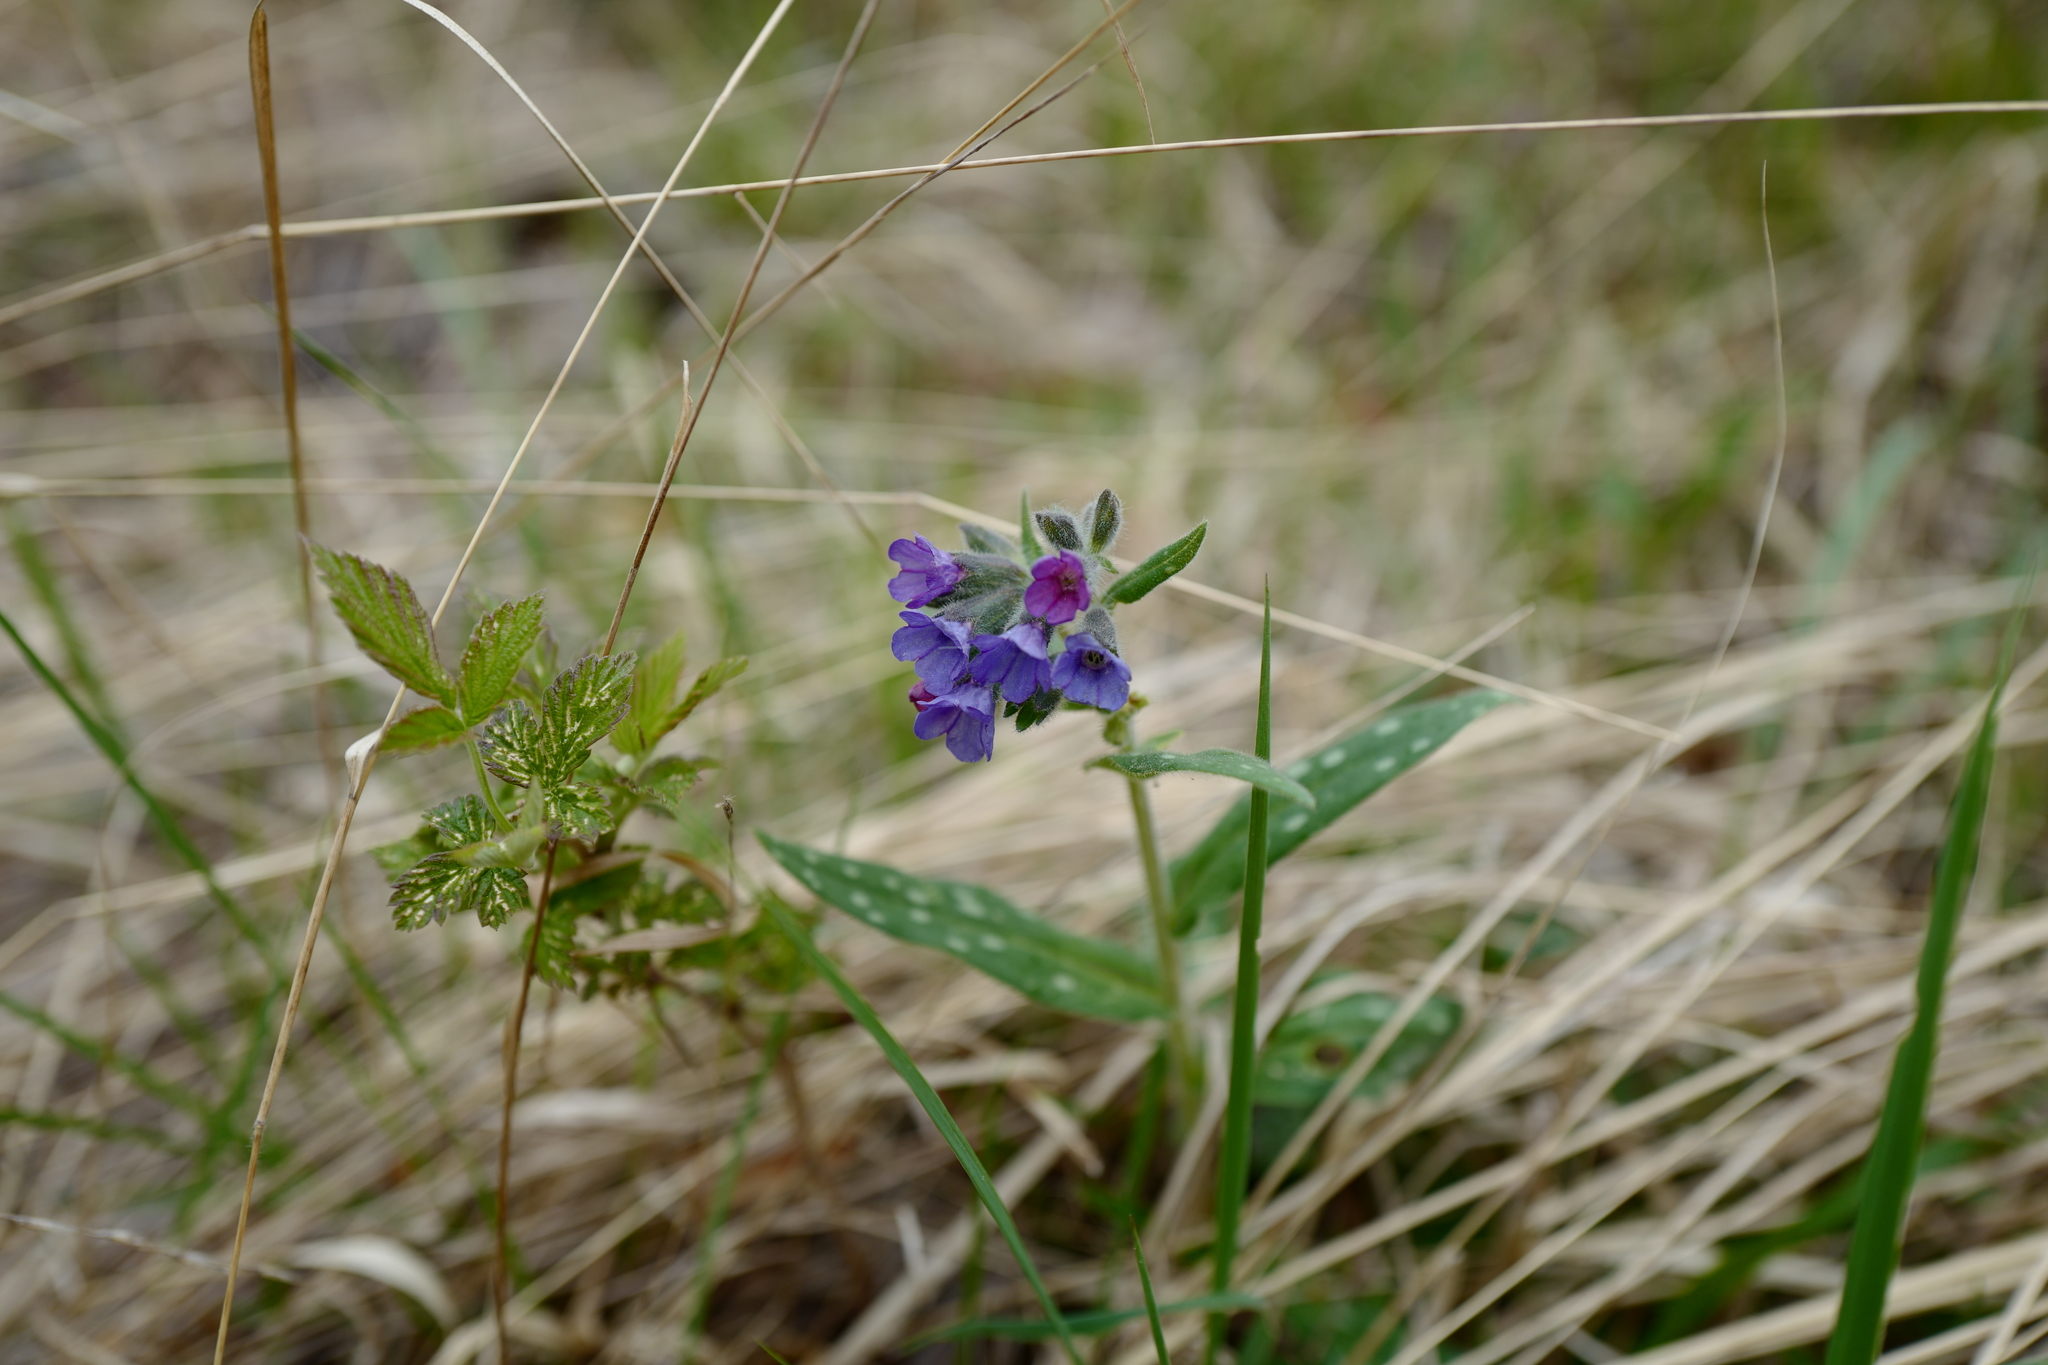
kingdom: Plantae
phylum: Tracheophyta
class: Magnoliopsida
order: Boraginales
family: Boraginaceae
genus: Pulmonaria
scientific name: Pulmonaria officinalis
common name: Lungwort
